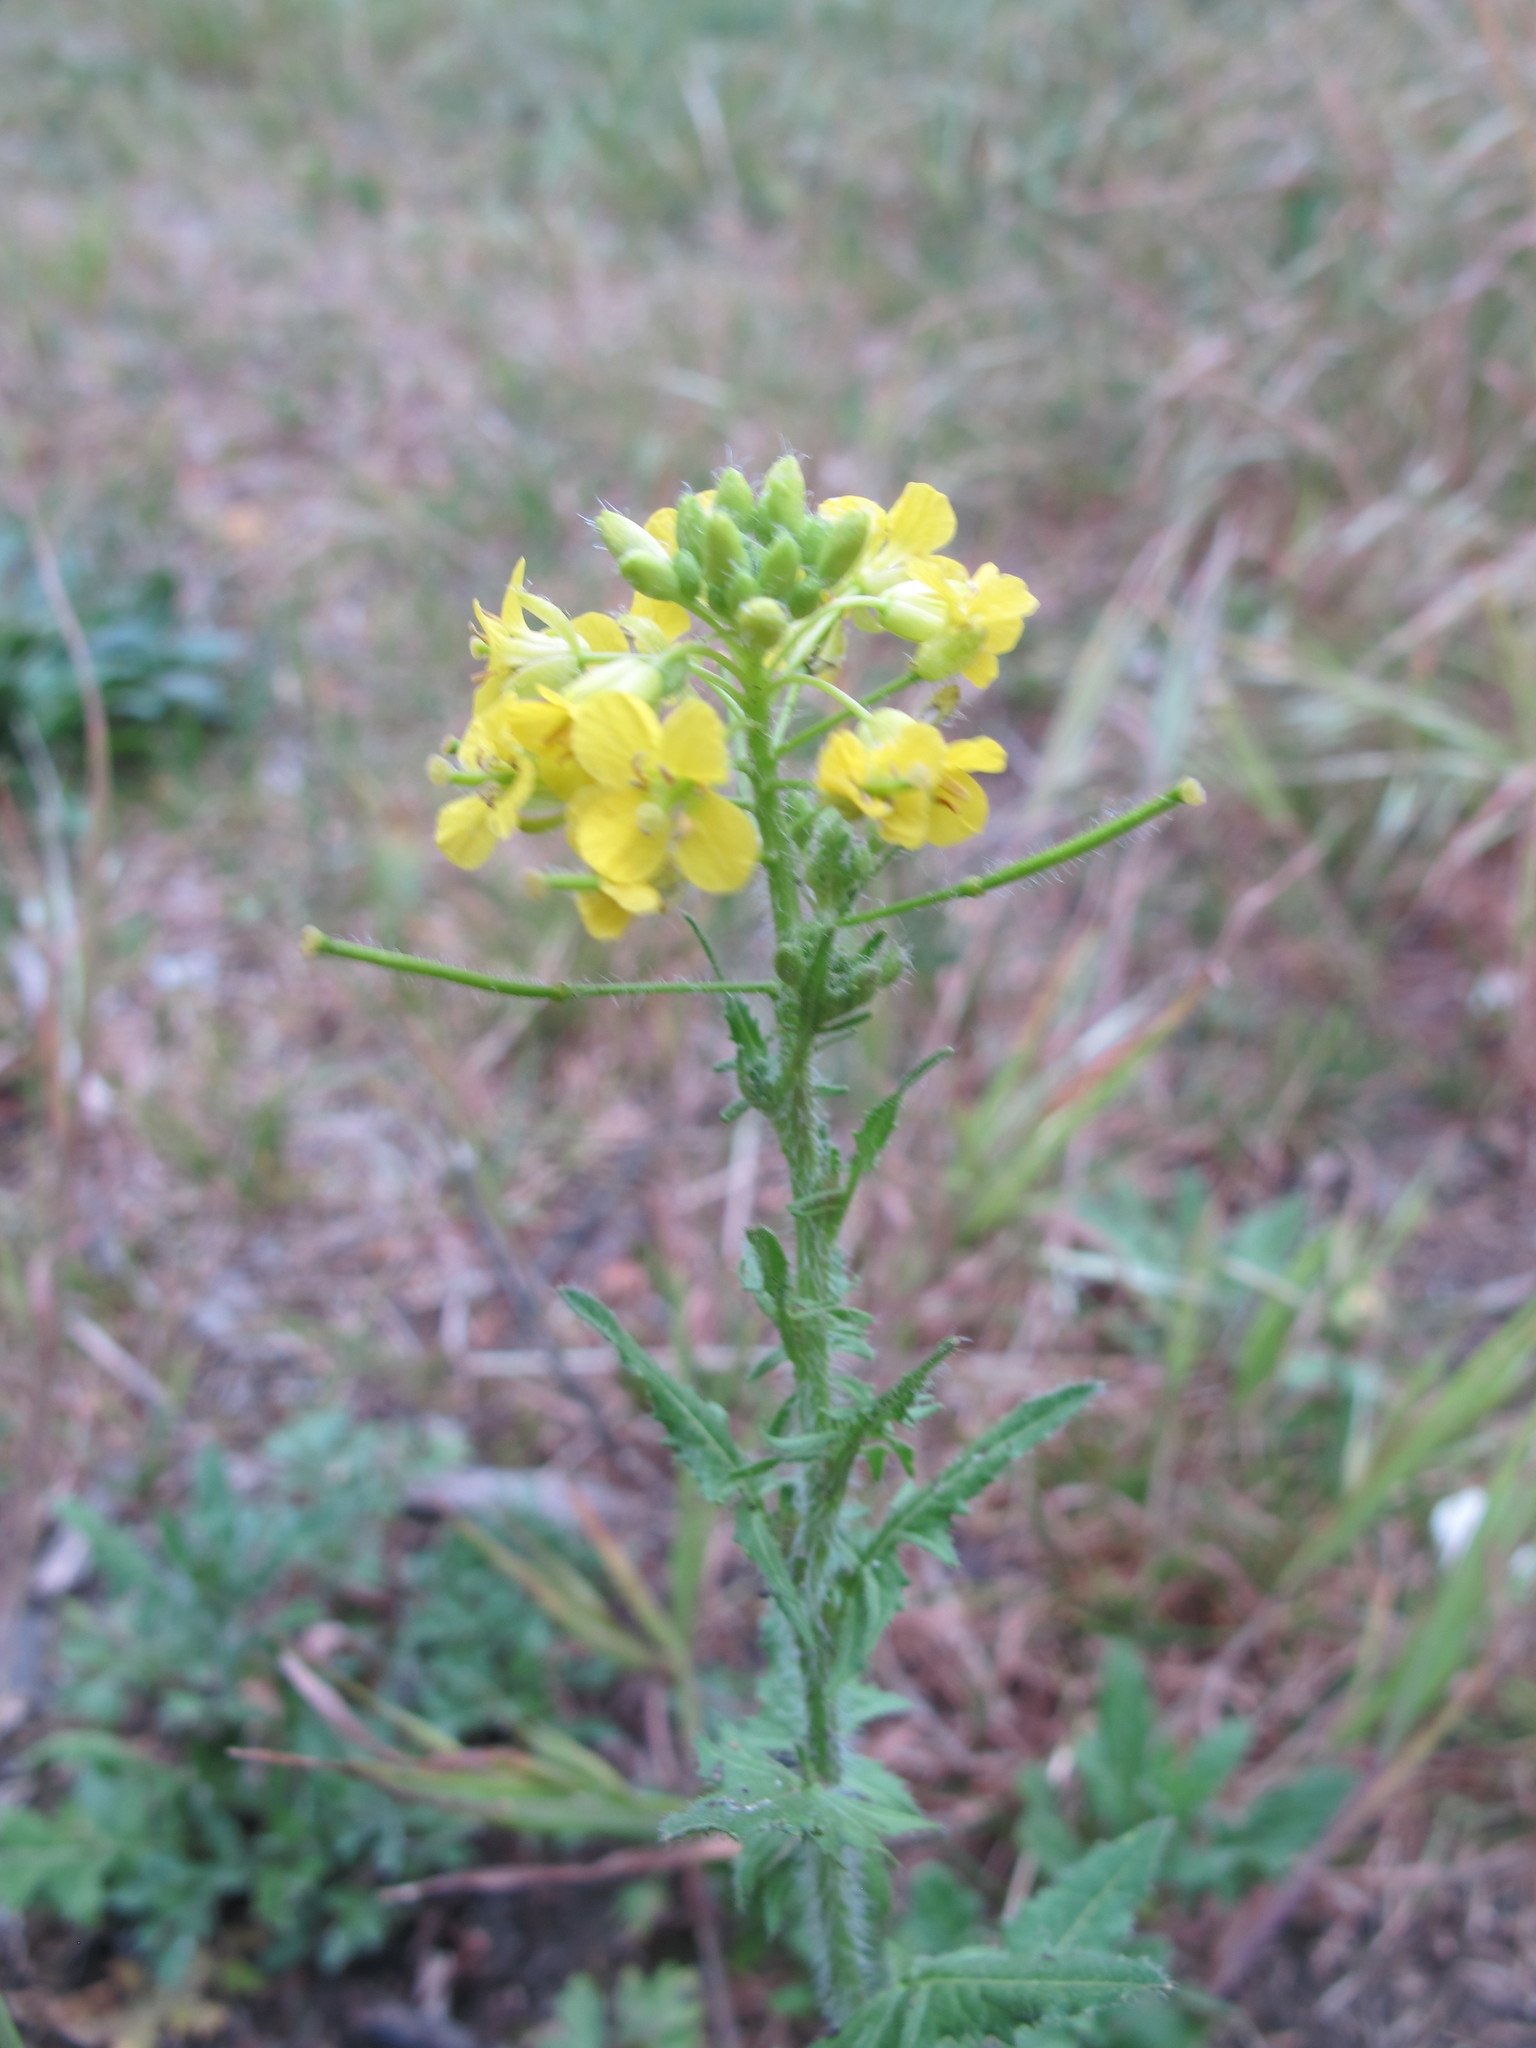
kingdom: Plantae
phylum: Tracheophyta
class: Magnoliopsida
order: Brassicales
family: Brassicaceae
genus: Sisymbrium
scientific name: Sisymbrium loeselii
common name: False london-rocket
